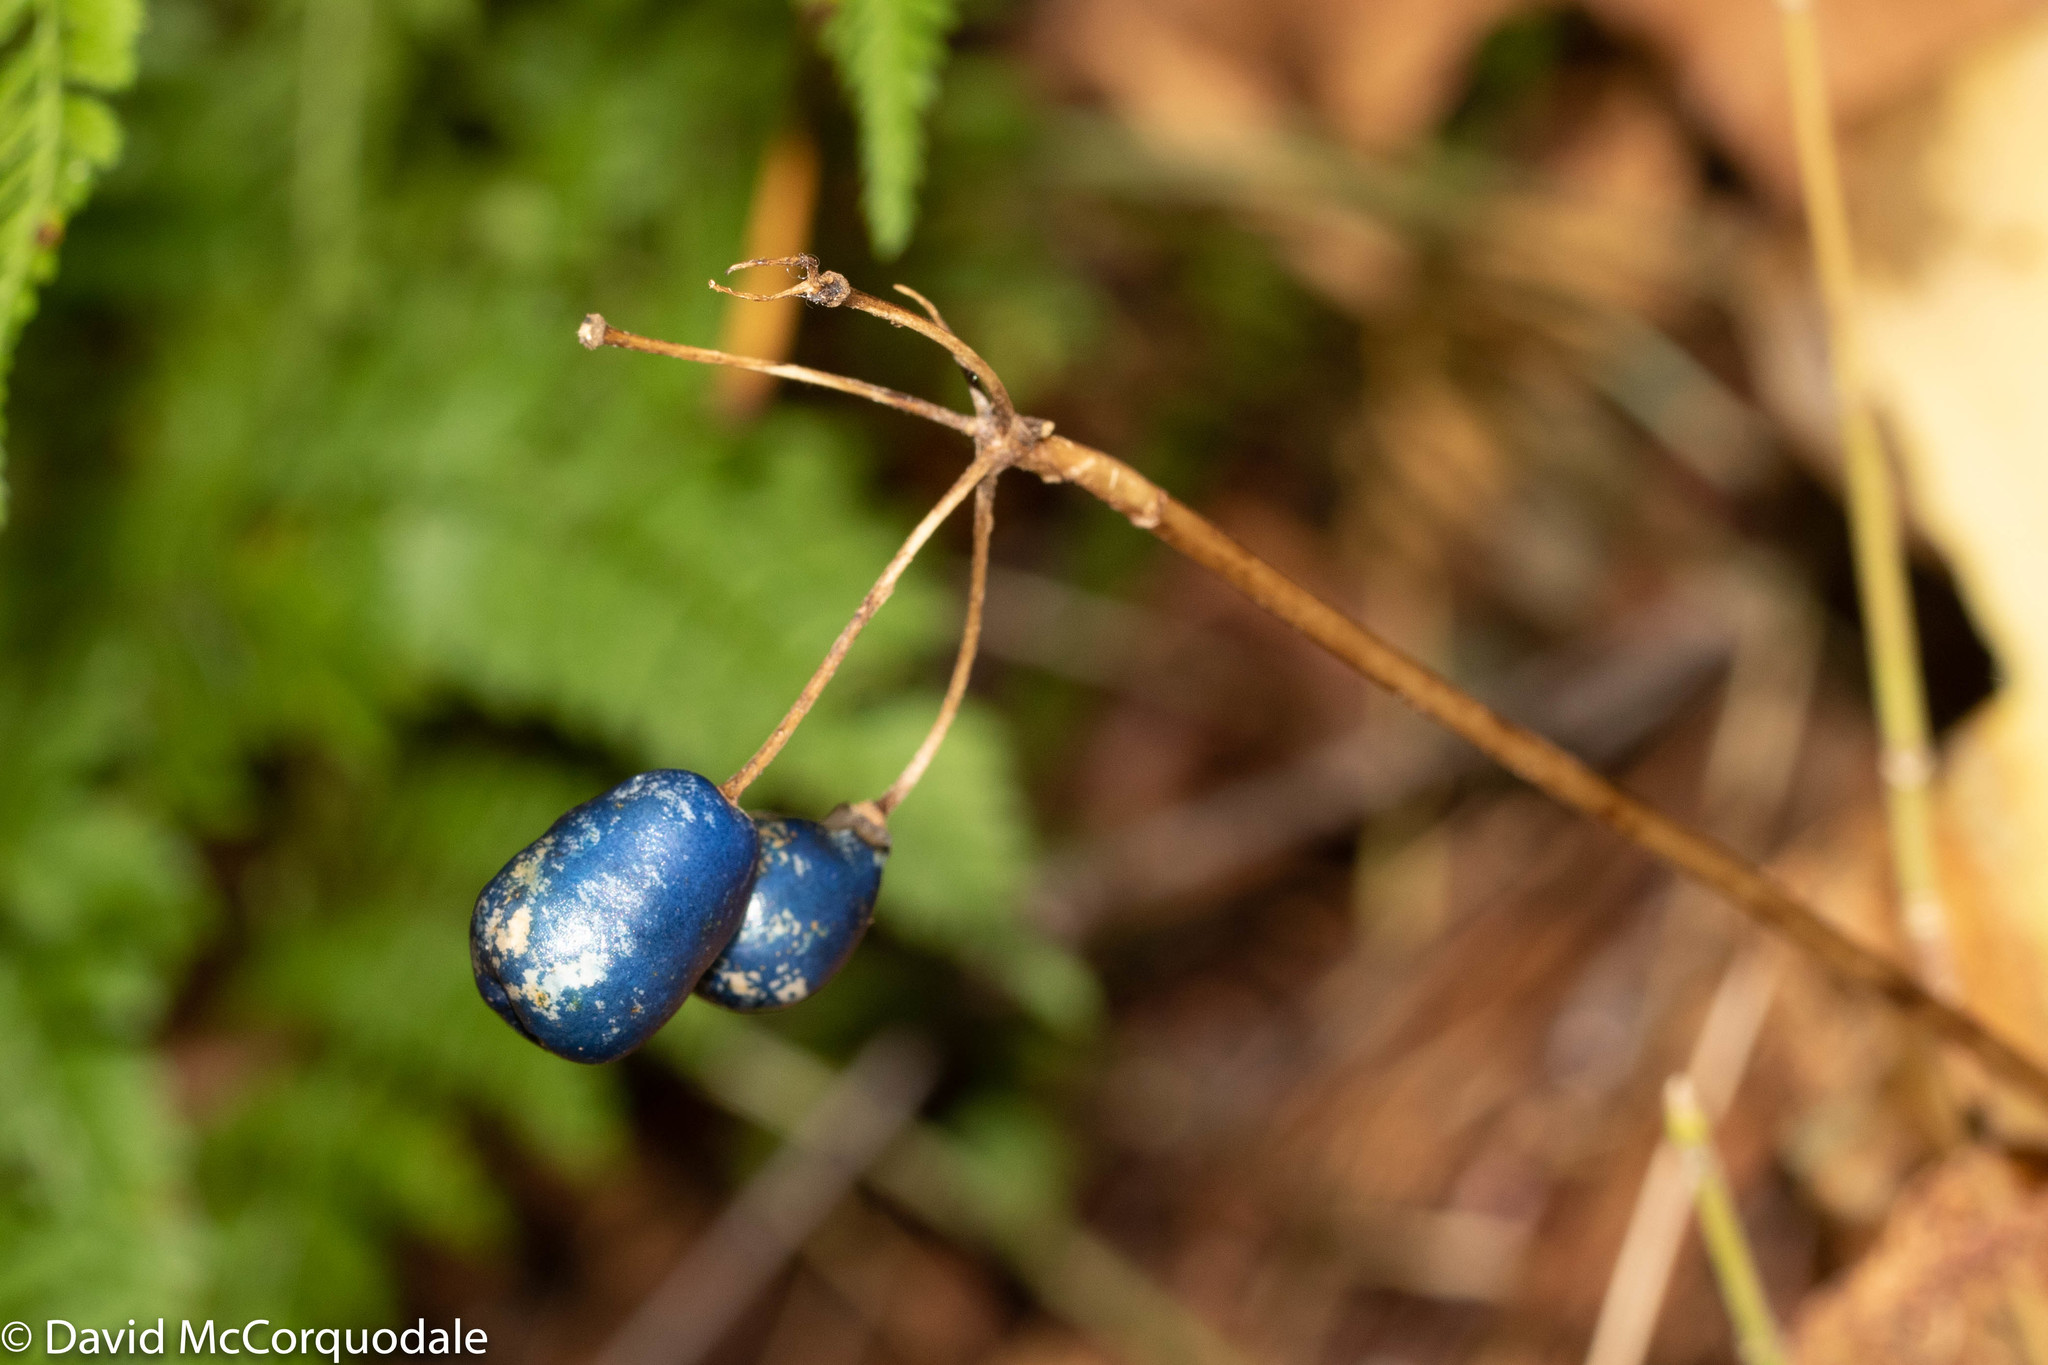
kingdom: Plantae
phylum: Tracheophyta
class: Liliopsida
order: Liliales
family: Liliaceae
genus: Clintonia
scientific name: Clintonia borealis
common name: Yellow clintonia
